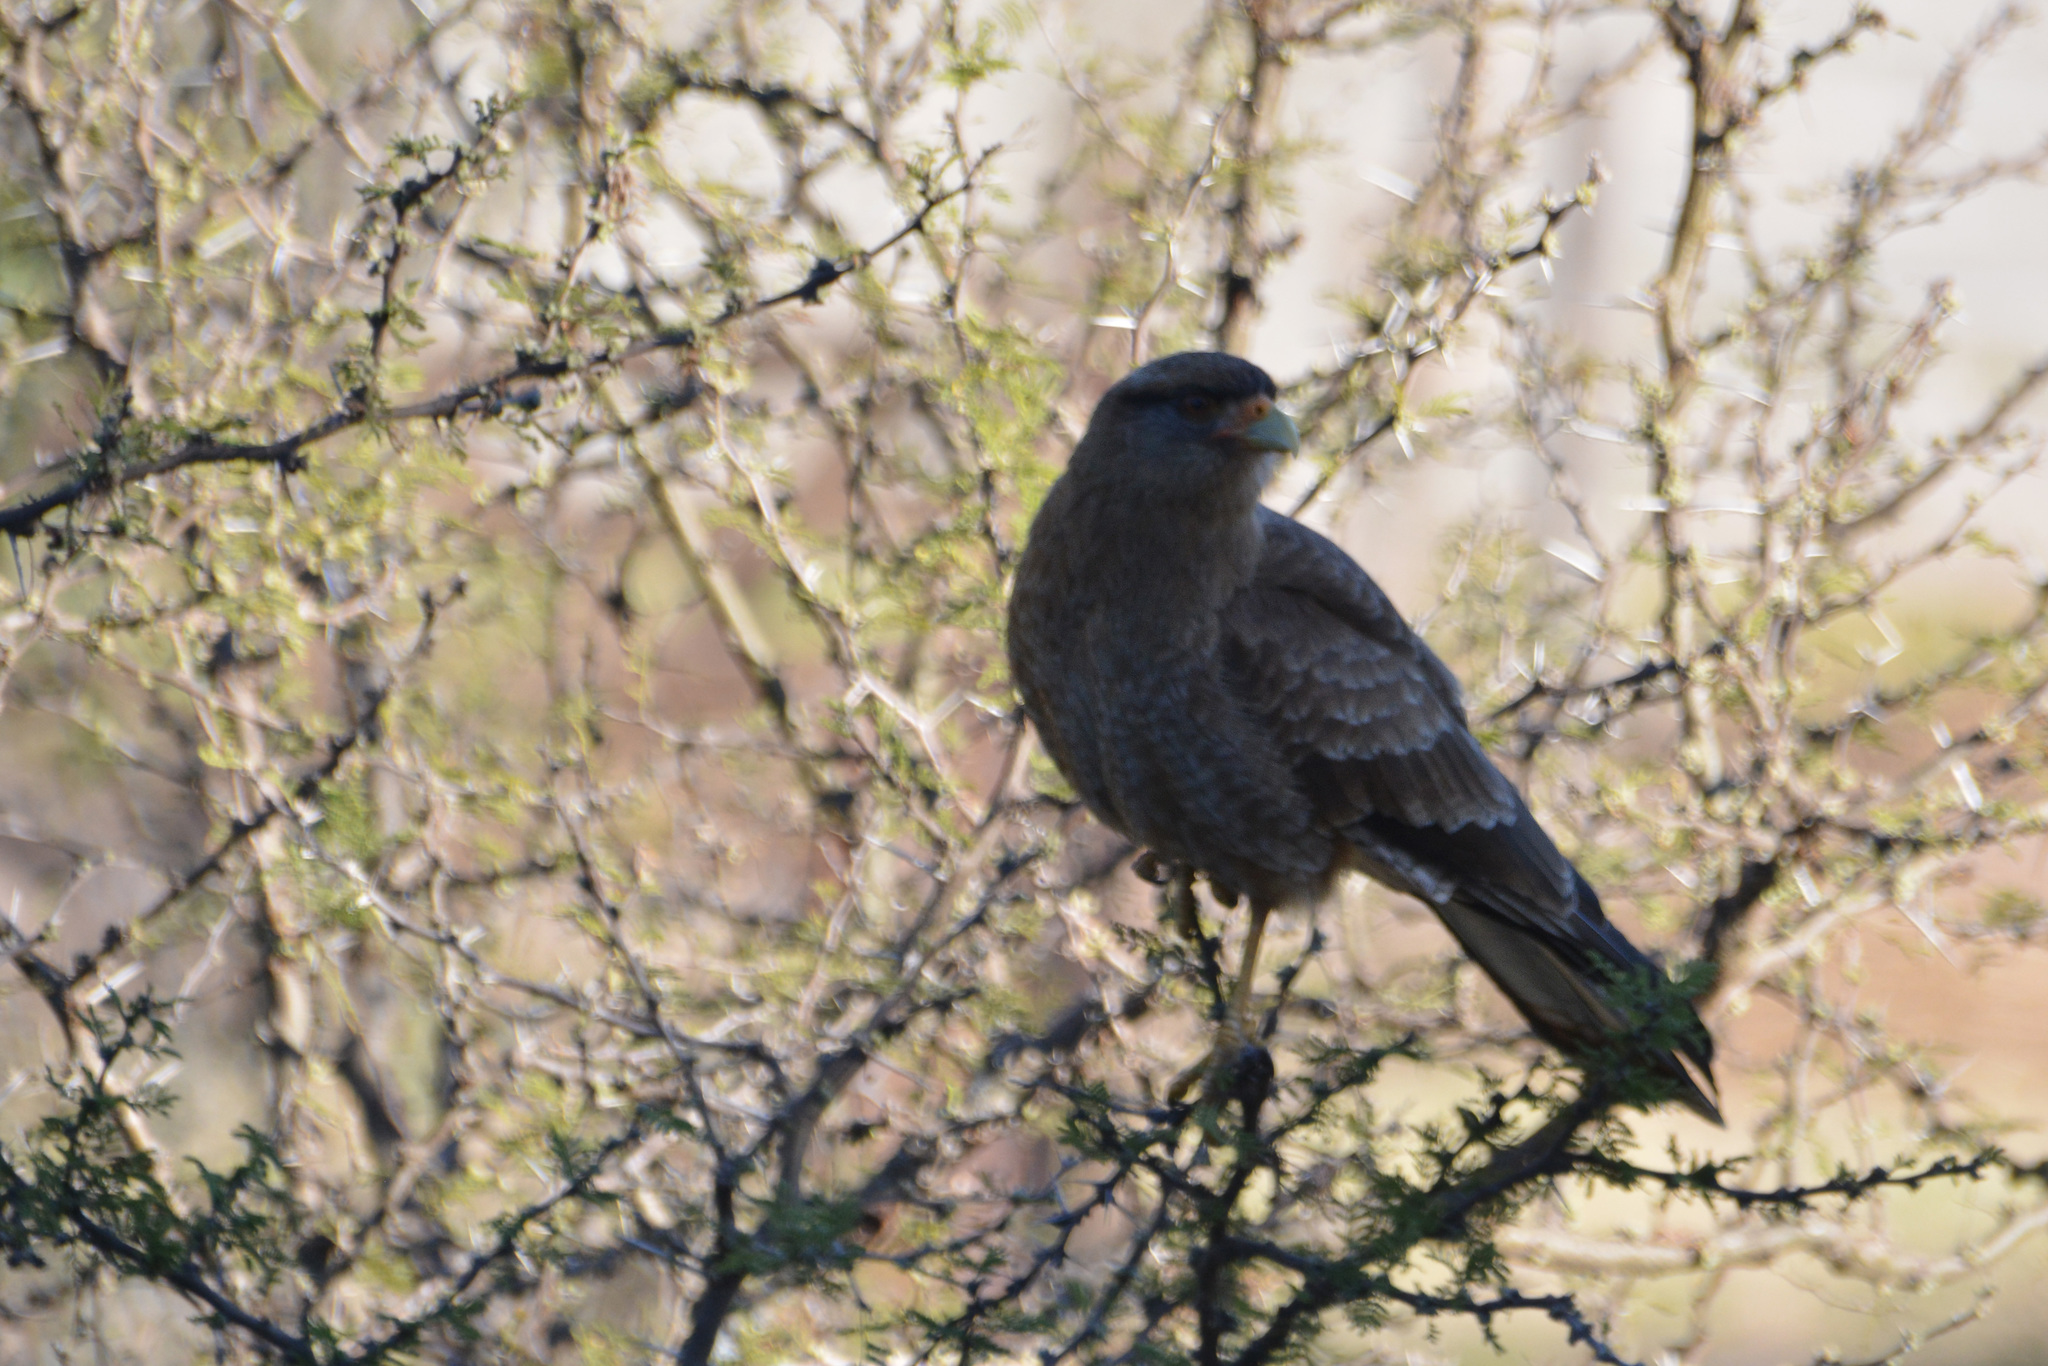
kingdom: Animalia
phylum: Chordata
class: Aves
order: Falconiformes
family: Falconidae
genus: Daptrius
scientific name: Daptrius
